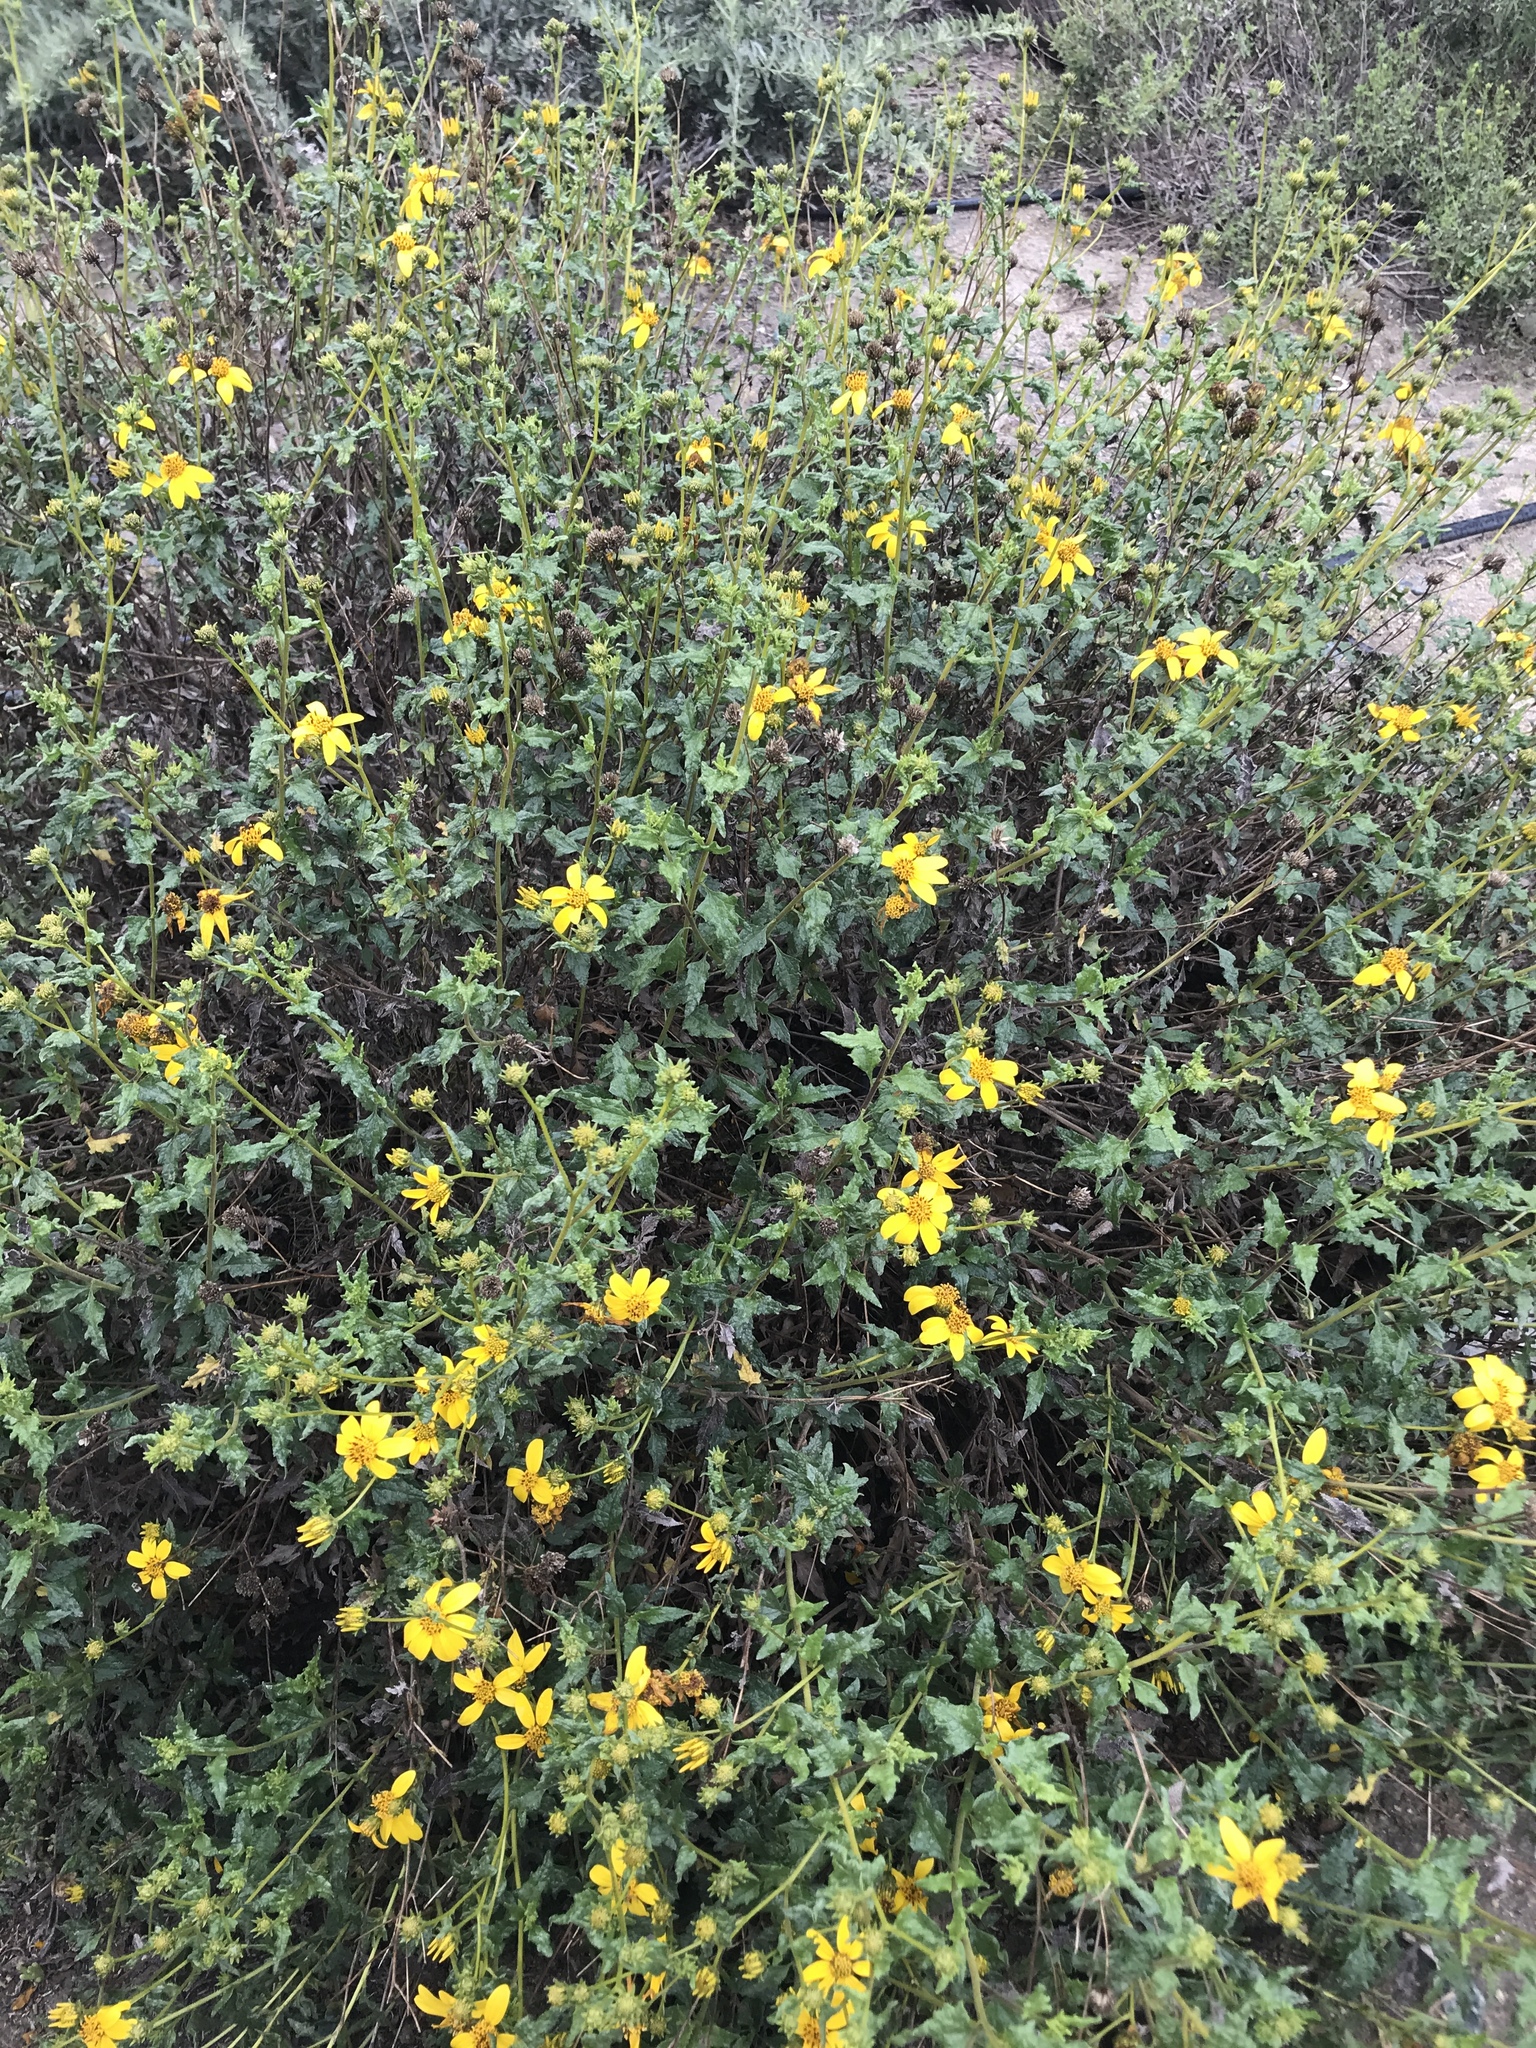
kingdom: Plantae
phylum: Tracheophyta
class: Magnoliopsida
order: Asterales
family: Asteraceae
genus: Bahiopsis
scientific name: Bahiopsis laciniata
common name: San diego county viguiera
